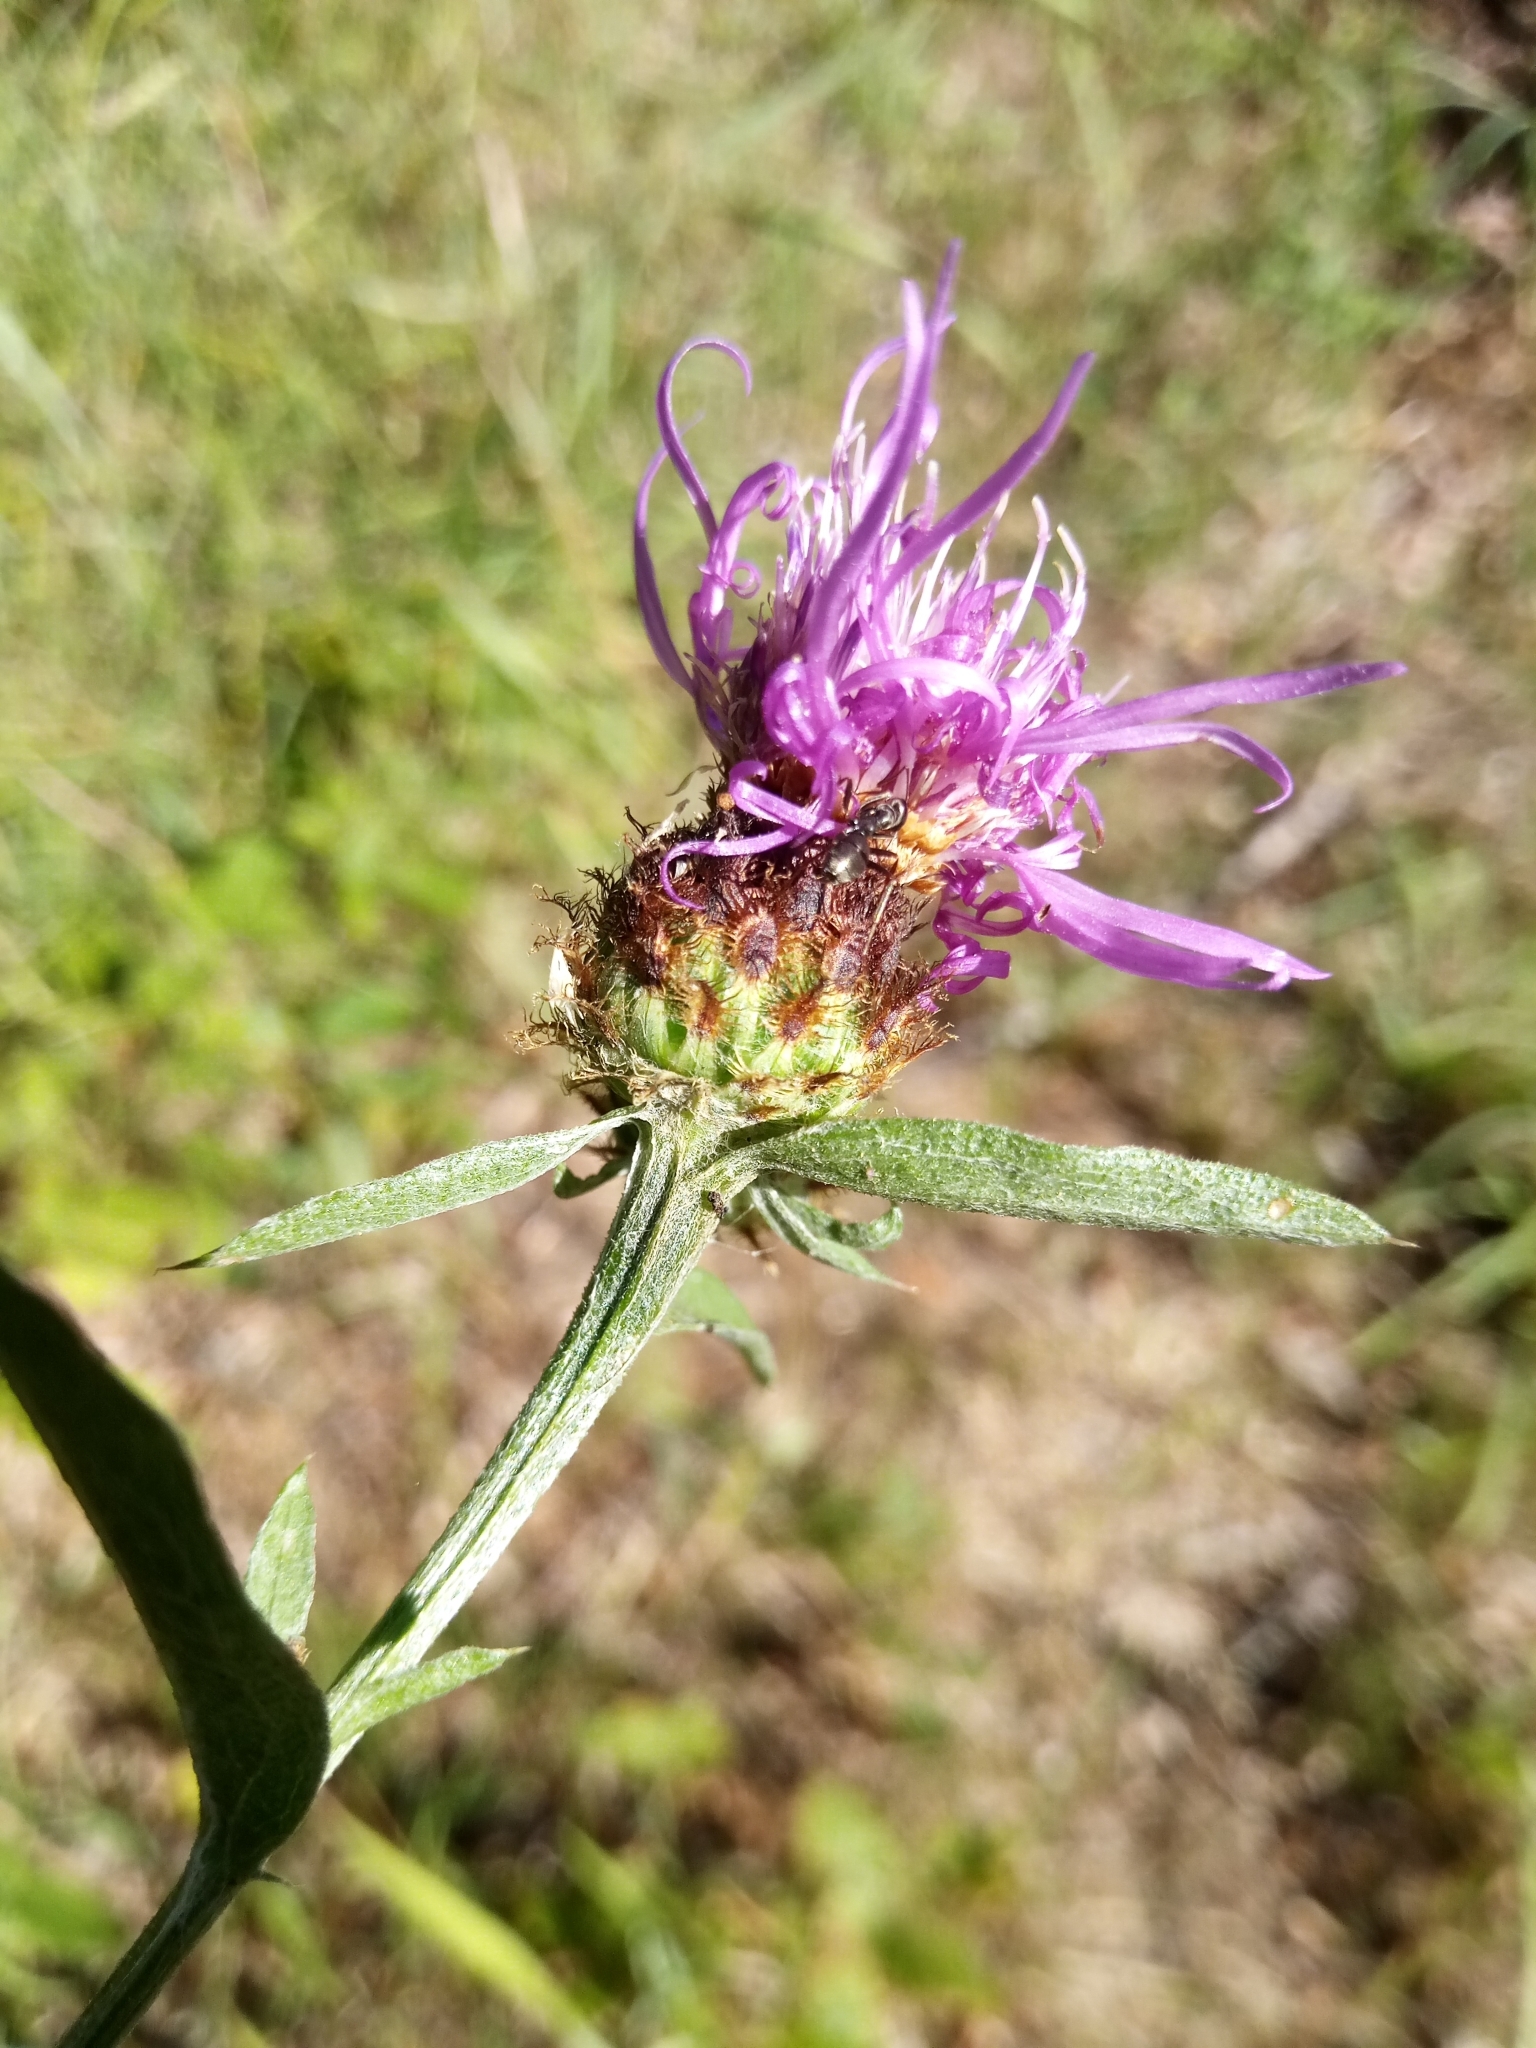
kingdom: Plantae
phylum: Tracheophyta
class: Magnoliopsida
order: Asterales
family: Asteraceae
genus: Centaurea
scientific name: Centaurea fleischeri
